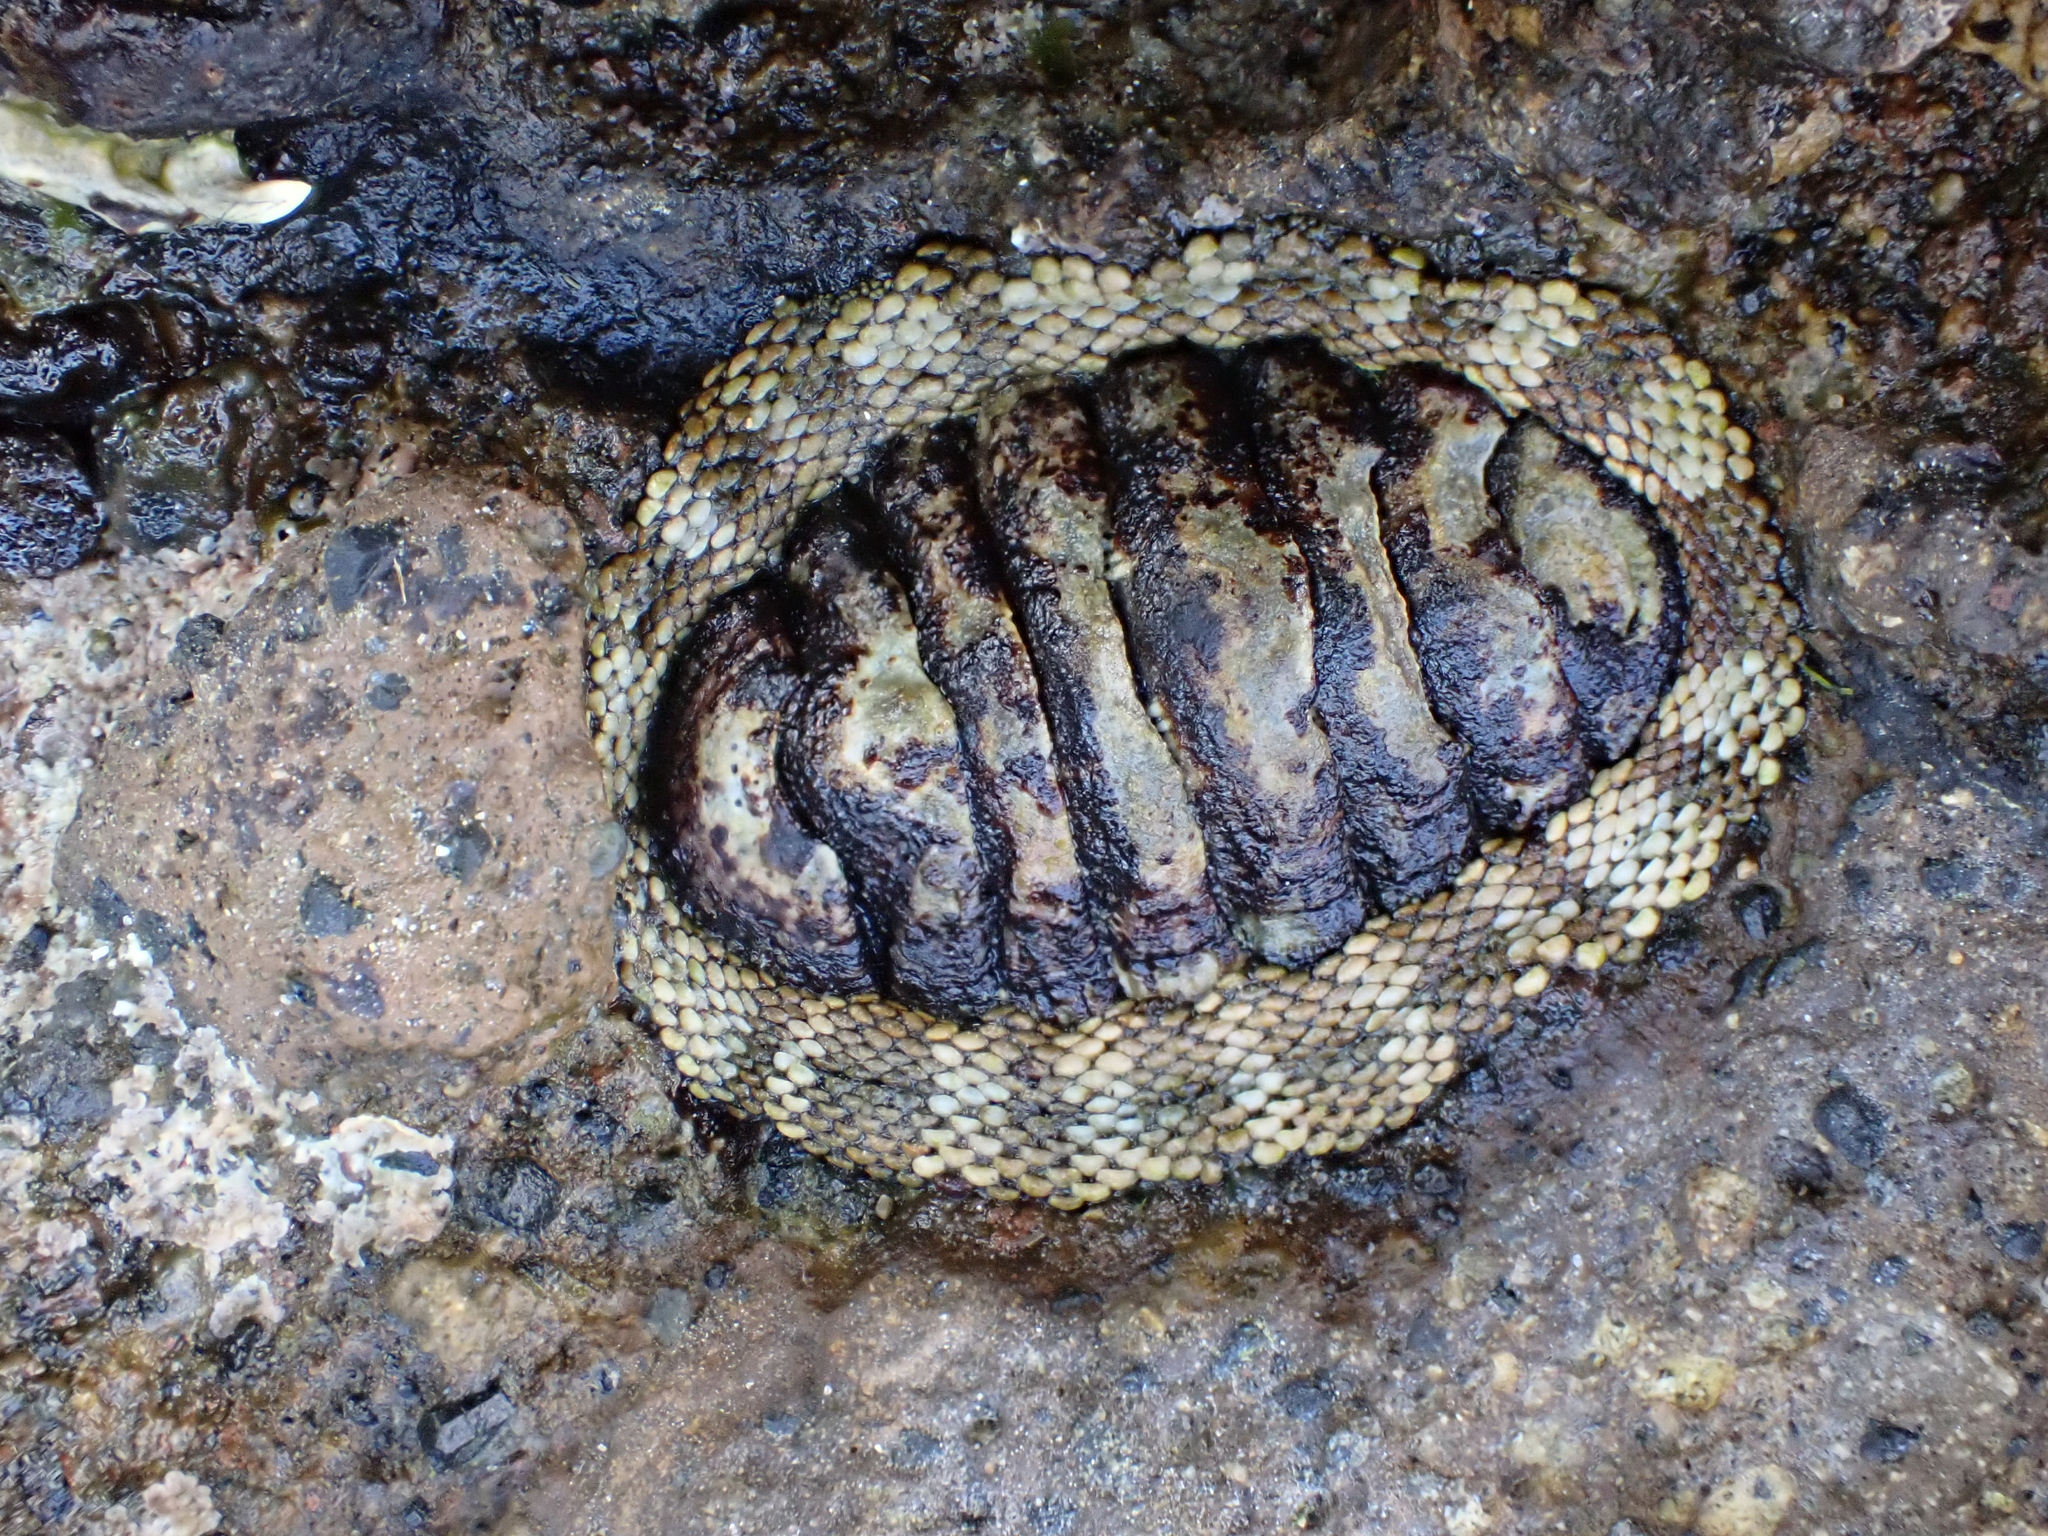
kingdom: Animalia
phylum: Mollusca
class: Polyplacophora
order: Chitonida
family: Chitonidae
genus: Sypharochiton
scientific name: Sypharochiton pelliserpentis
